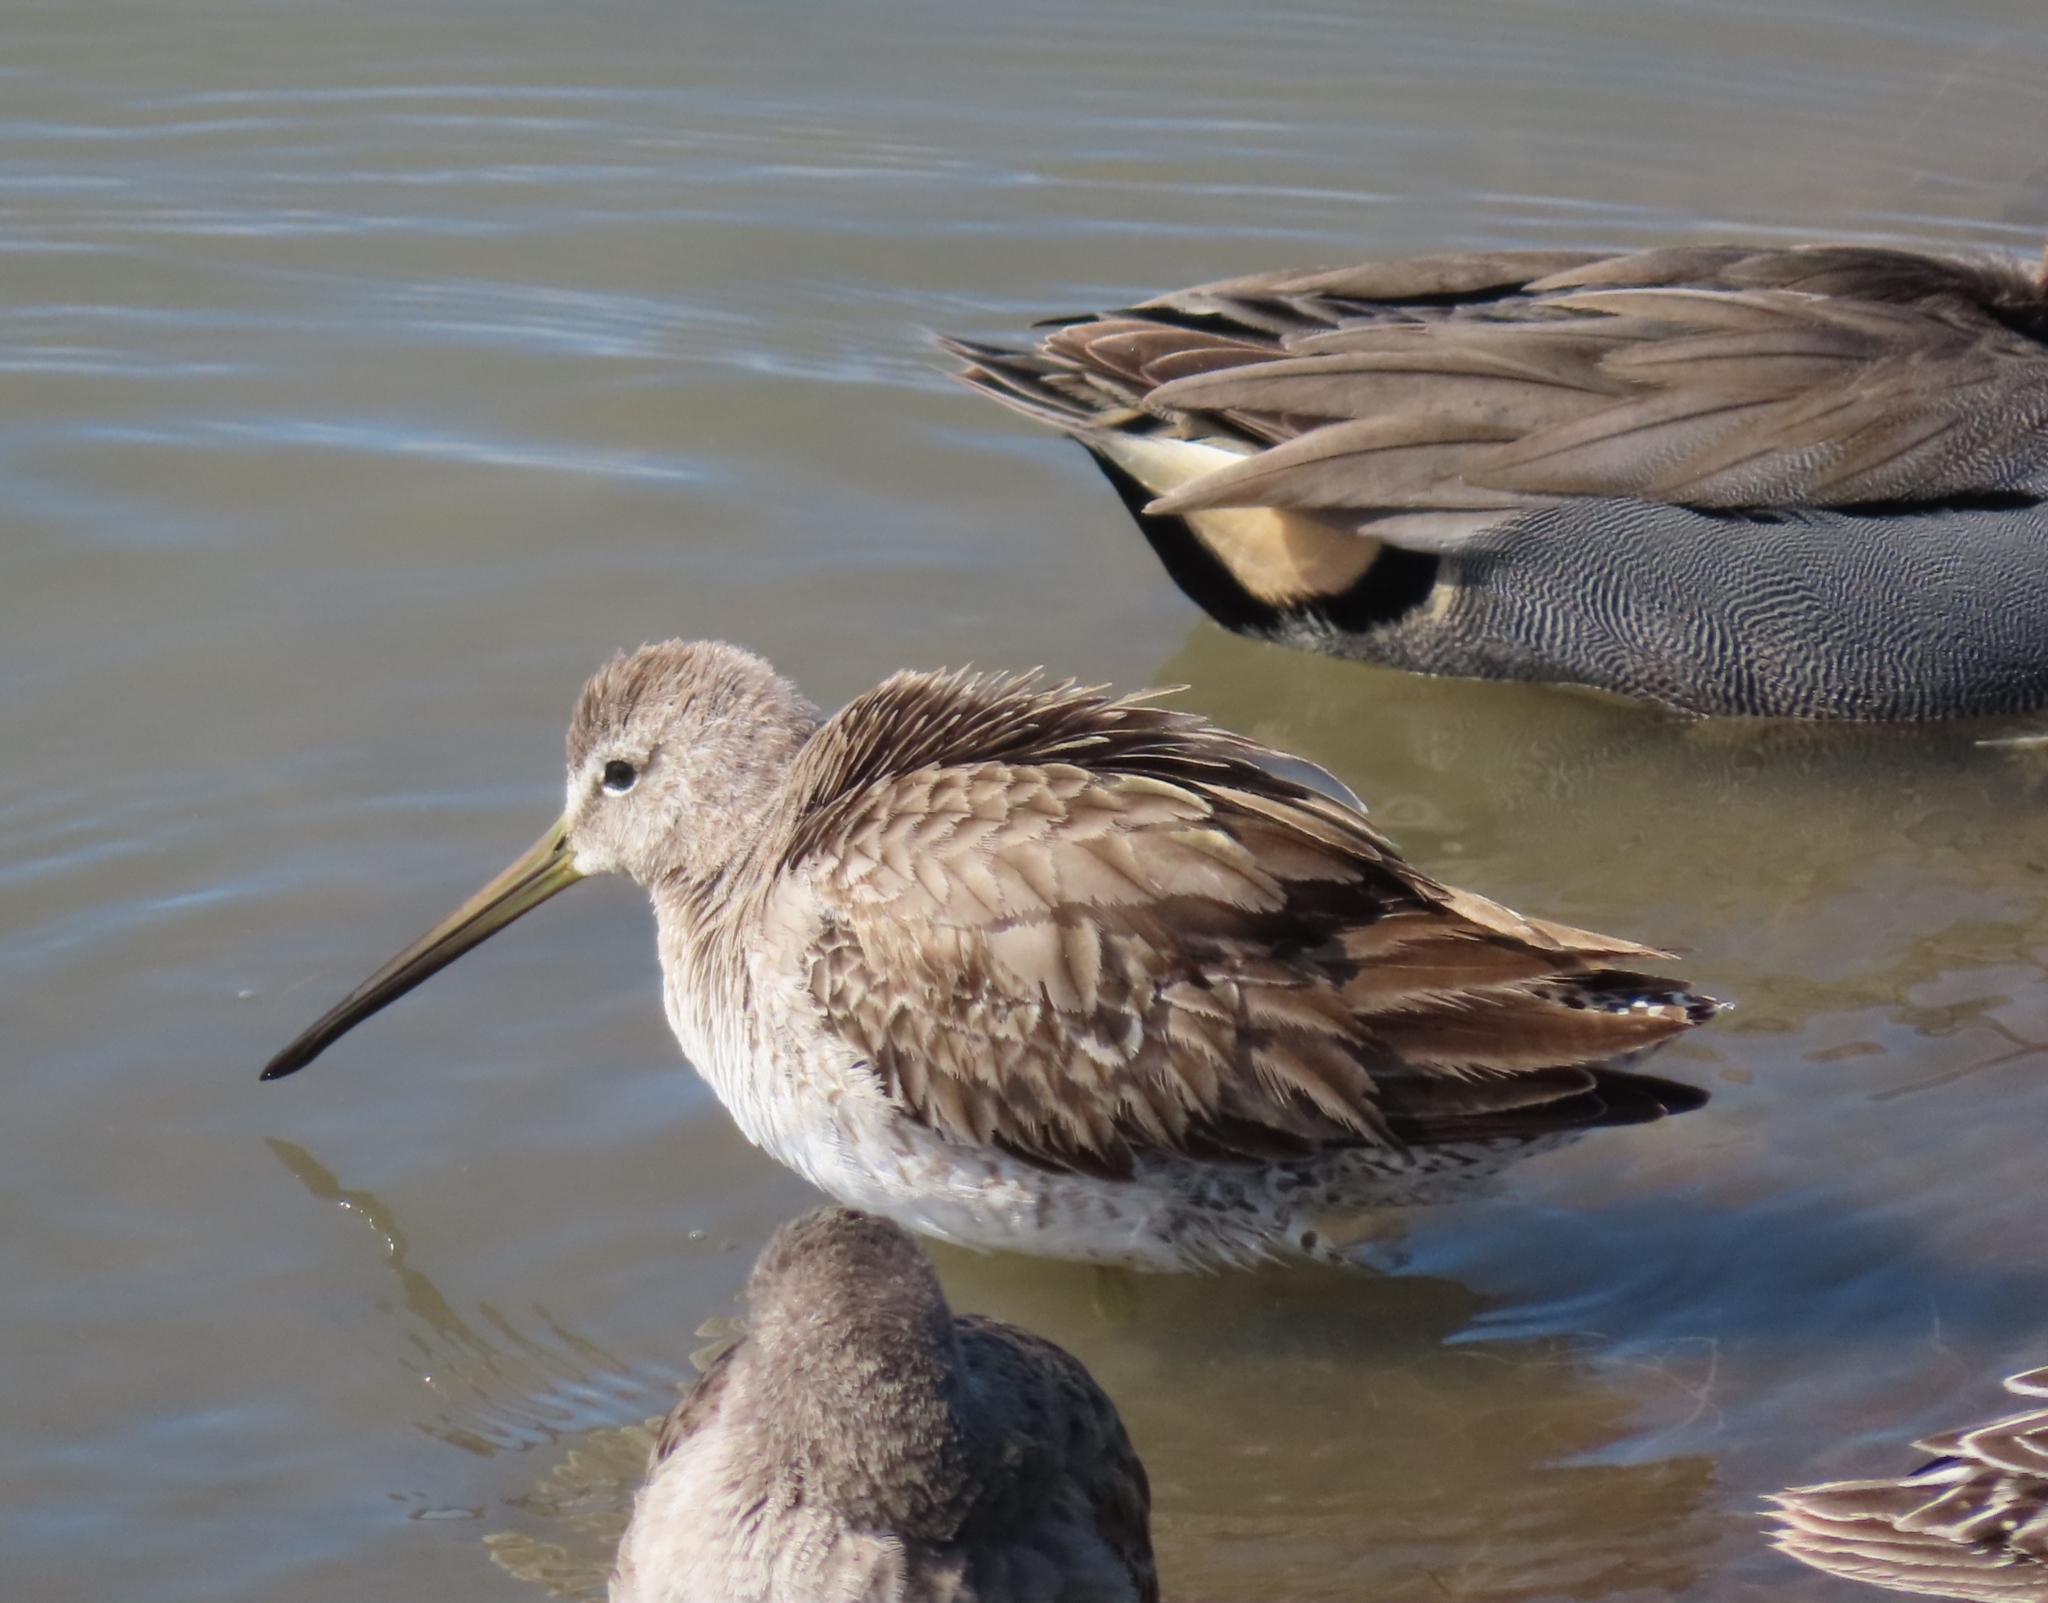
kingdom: Animalia
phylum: Chordata
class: Aves
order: Charadriiformes
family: Scolopacidae
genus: Limnodromus
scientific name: Limnodromus scolopaceus
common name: Long-billed dowitcher
